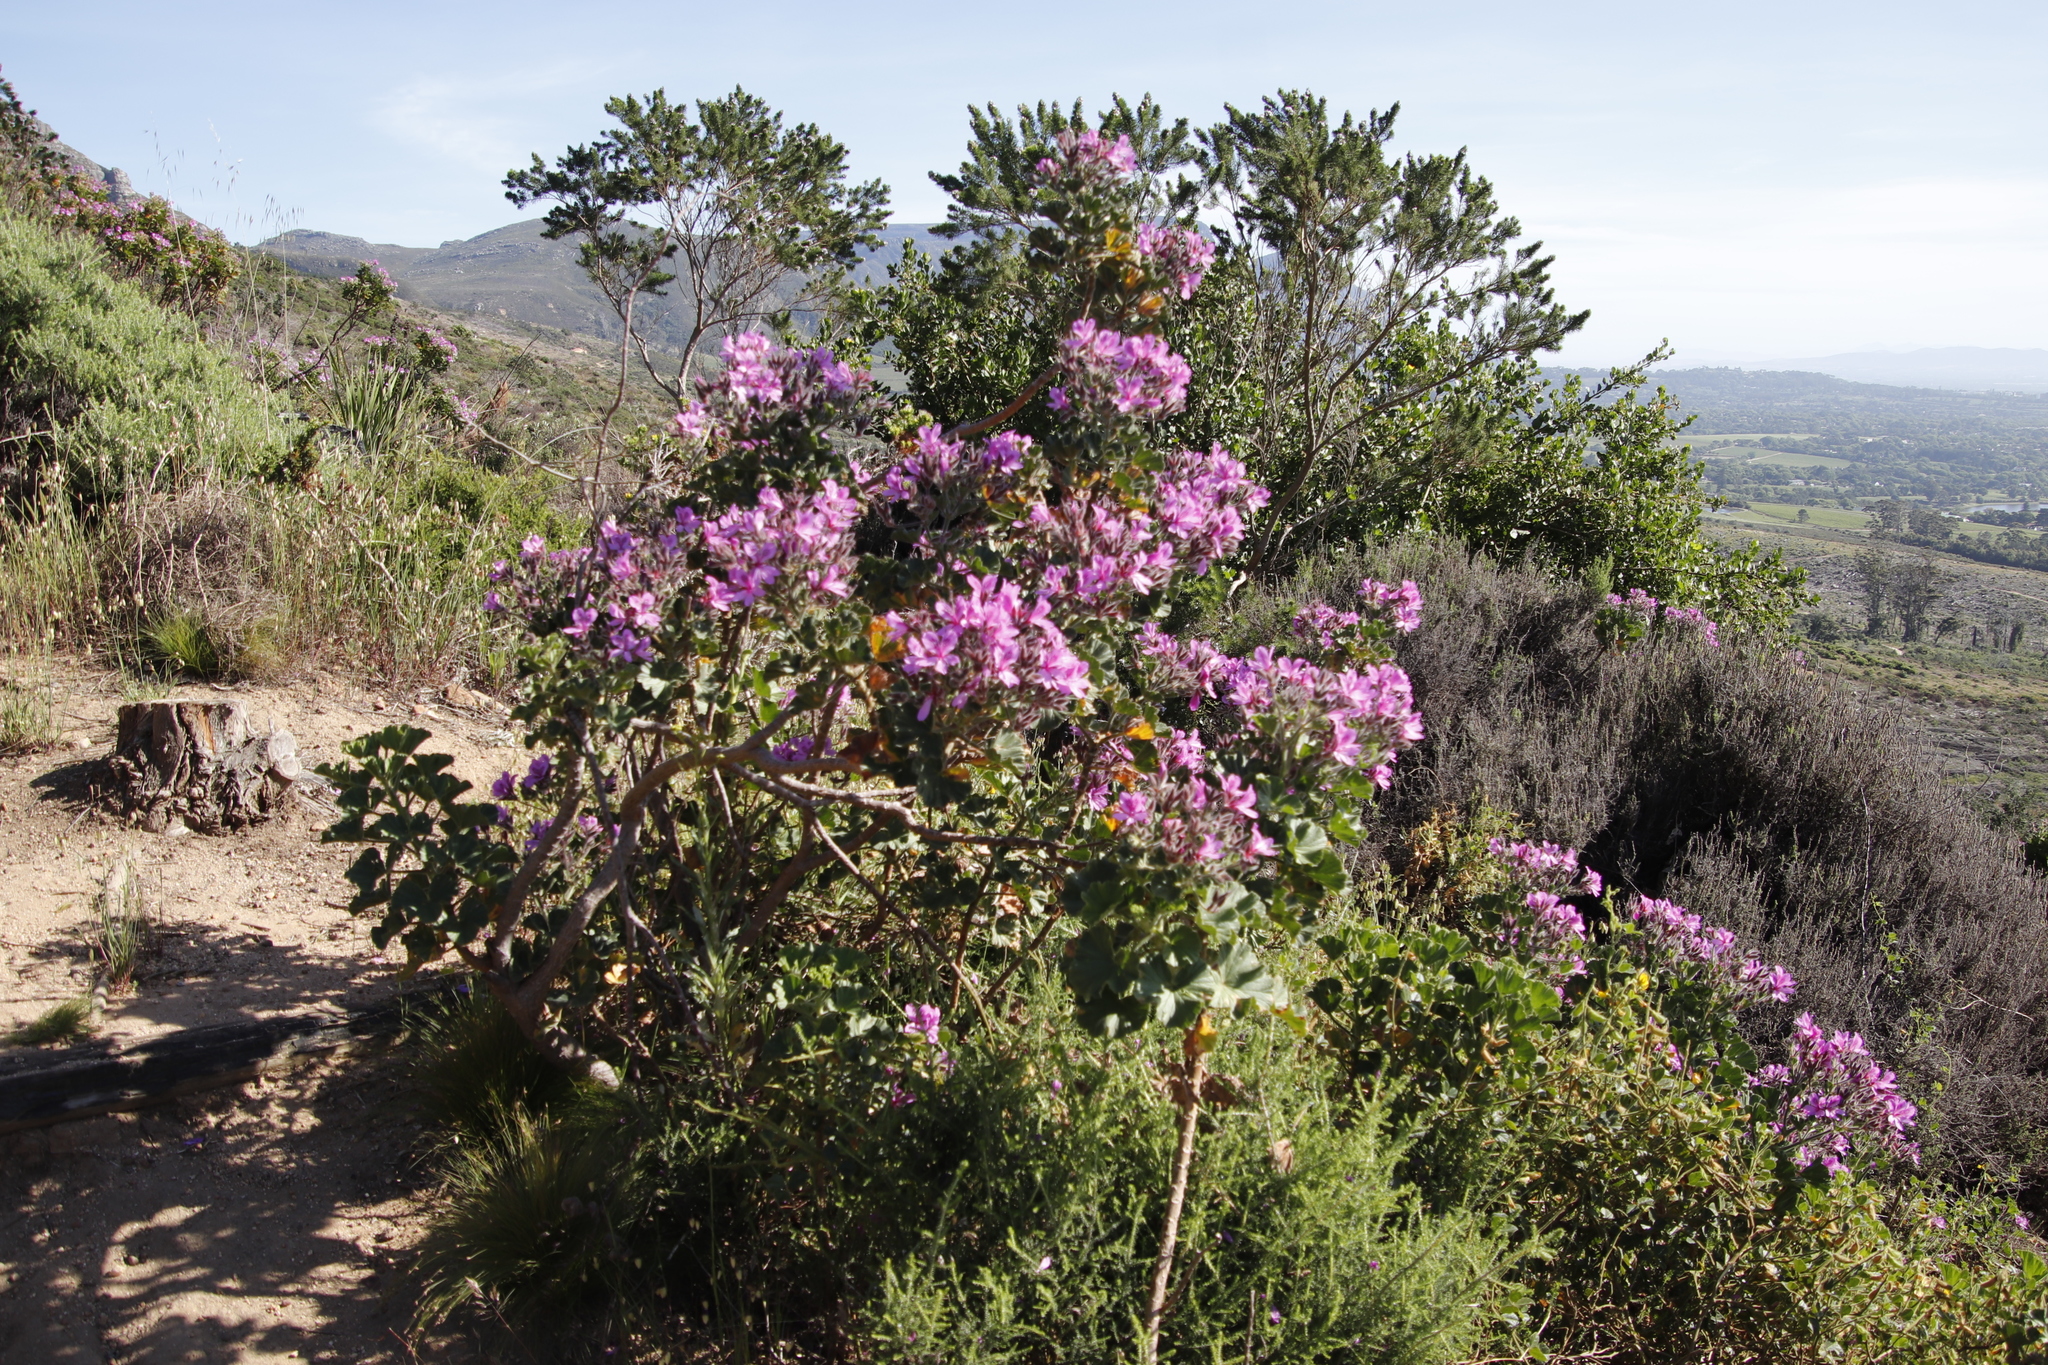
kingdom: Plantae
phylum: Tracheophyta
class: Magnoliopsida
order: Geraniales
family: Geraniaceae
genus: Pelargonium
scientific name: Pelargonium cucullatum
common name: Tree pelargonium
